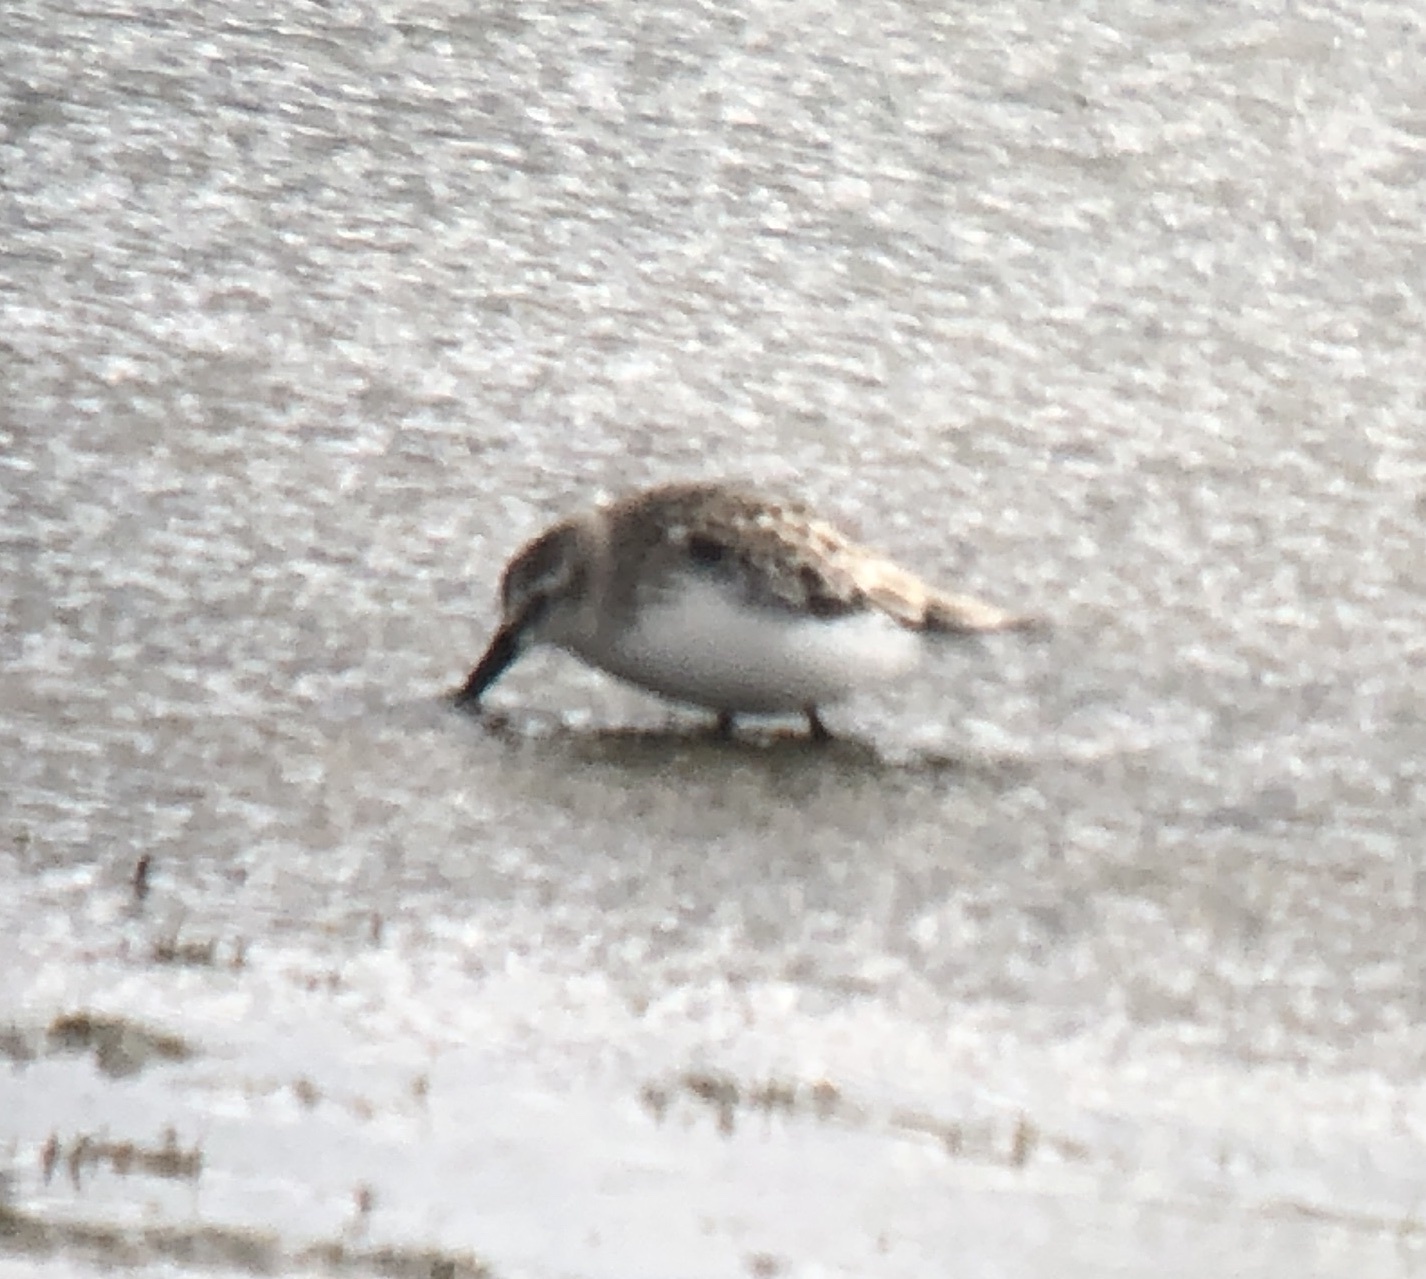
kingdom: Animalia
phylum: Chordata
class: Aves
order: Charadriiformes
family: Scolopacidae
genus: Calidris
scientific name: Calidris pusilla
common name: Semipalmated sandpiper
